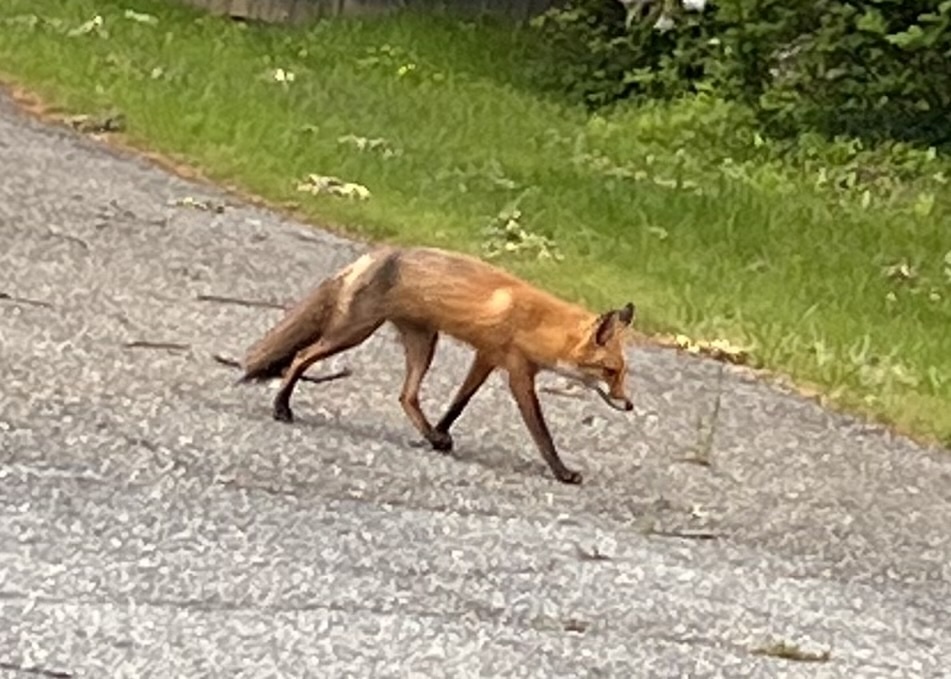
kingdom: Animalia
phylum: Chordata
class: Mammalia
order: Carnivora
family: Canidae
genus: Vulpes
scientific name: Vulpes vulpes
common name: Red fox
